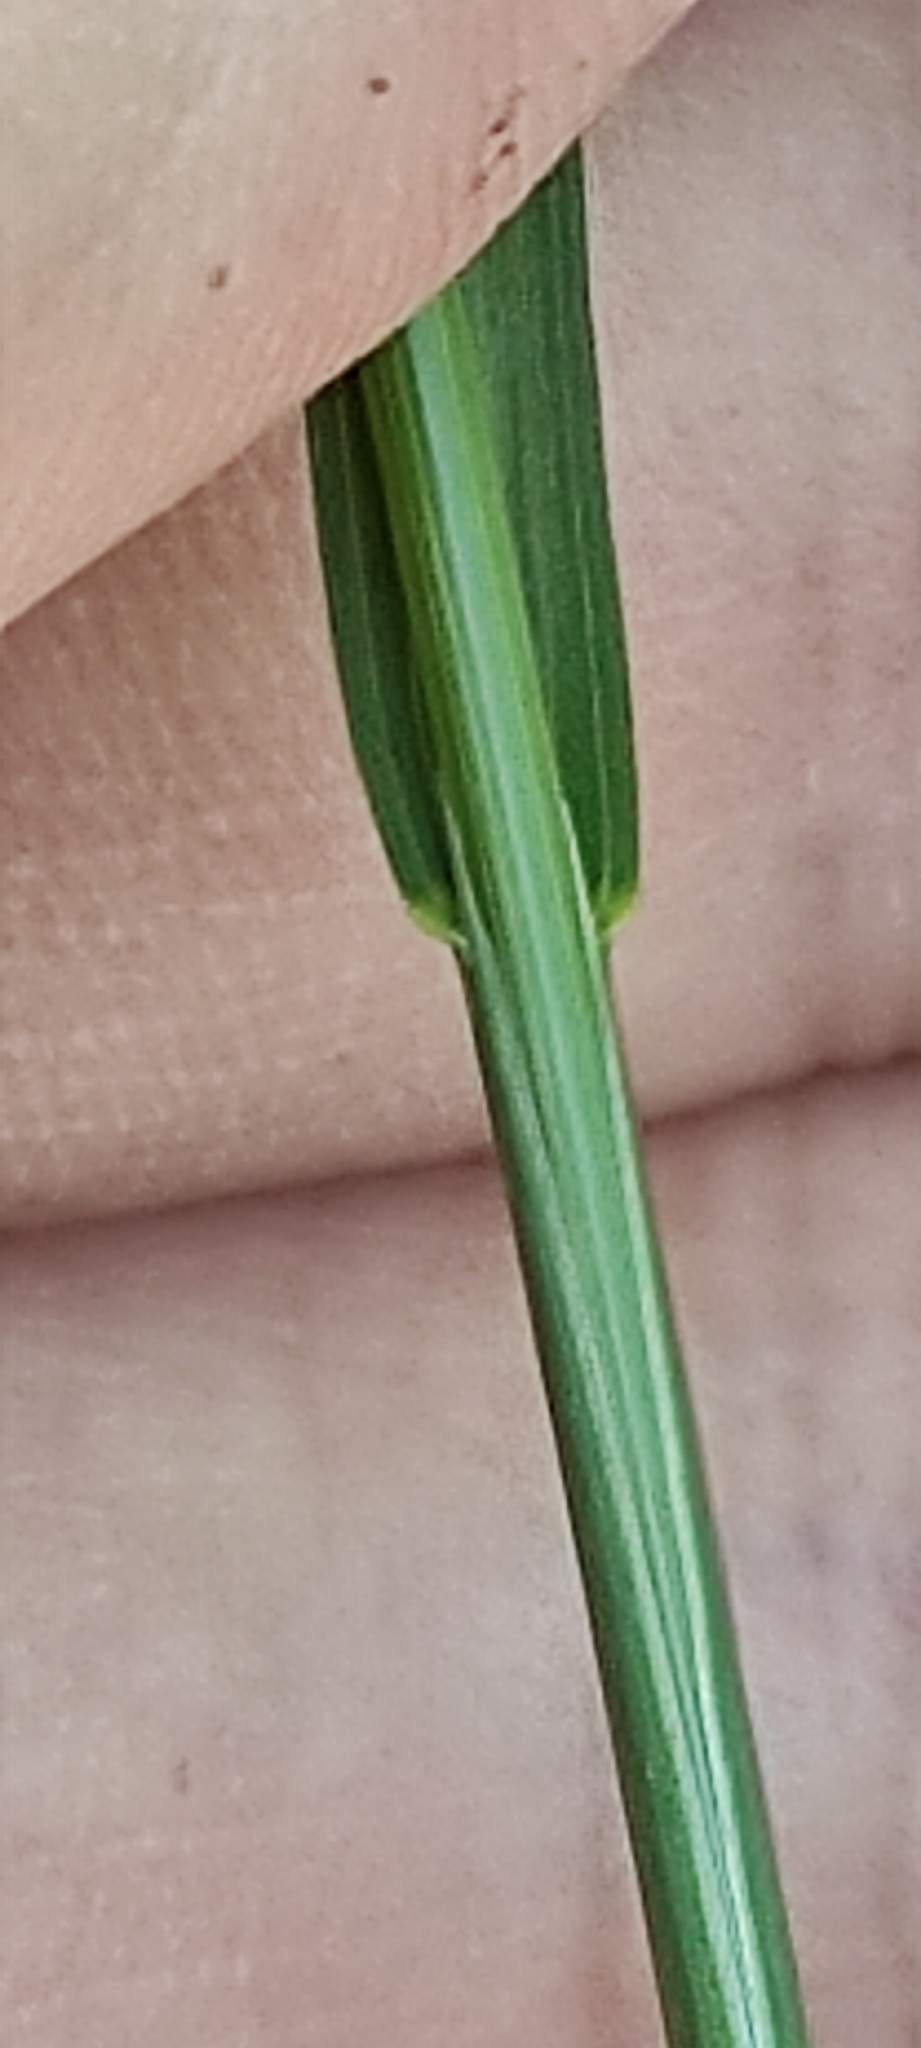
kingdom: Plantae
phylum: Tracheophyta
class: Liliopsida
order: Poales
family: Poaceae
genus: Poa
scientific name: Poa pratensis
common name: Kentucky bluegrass
